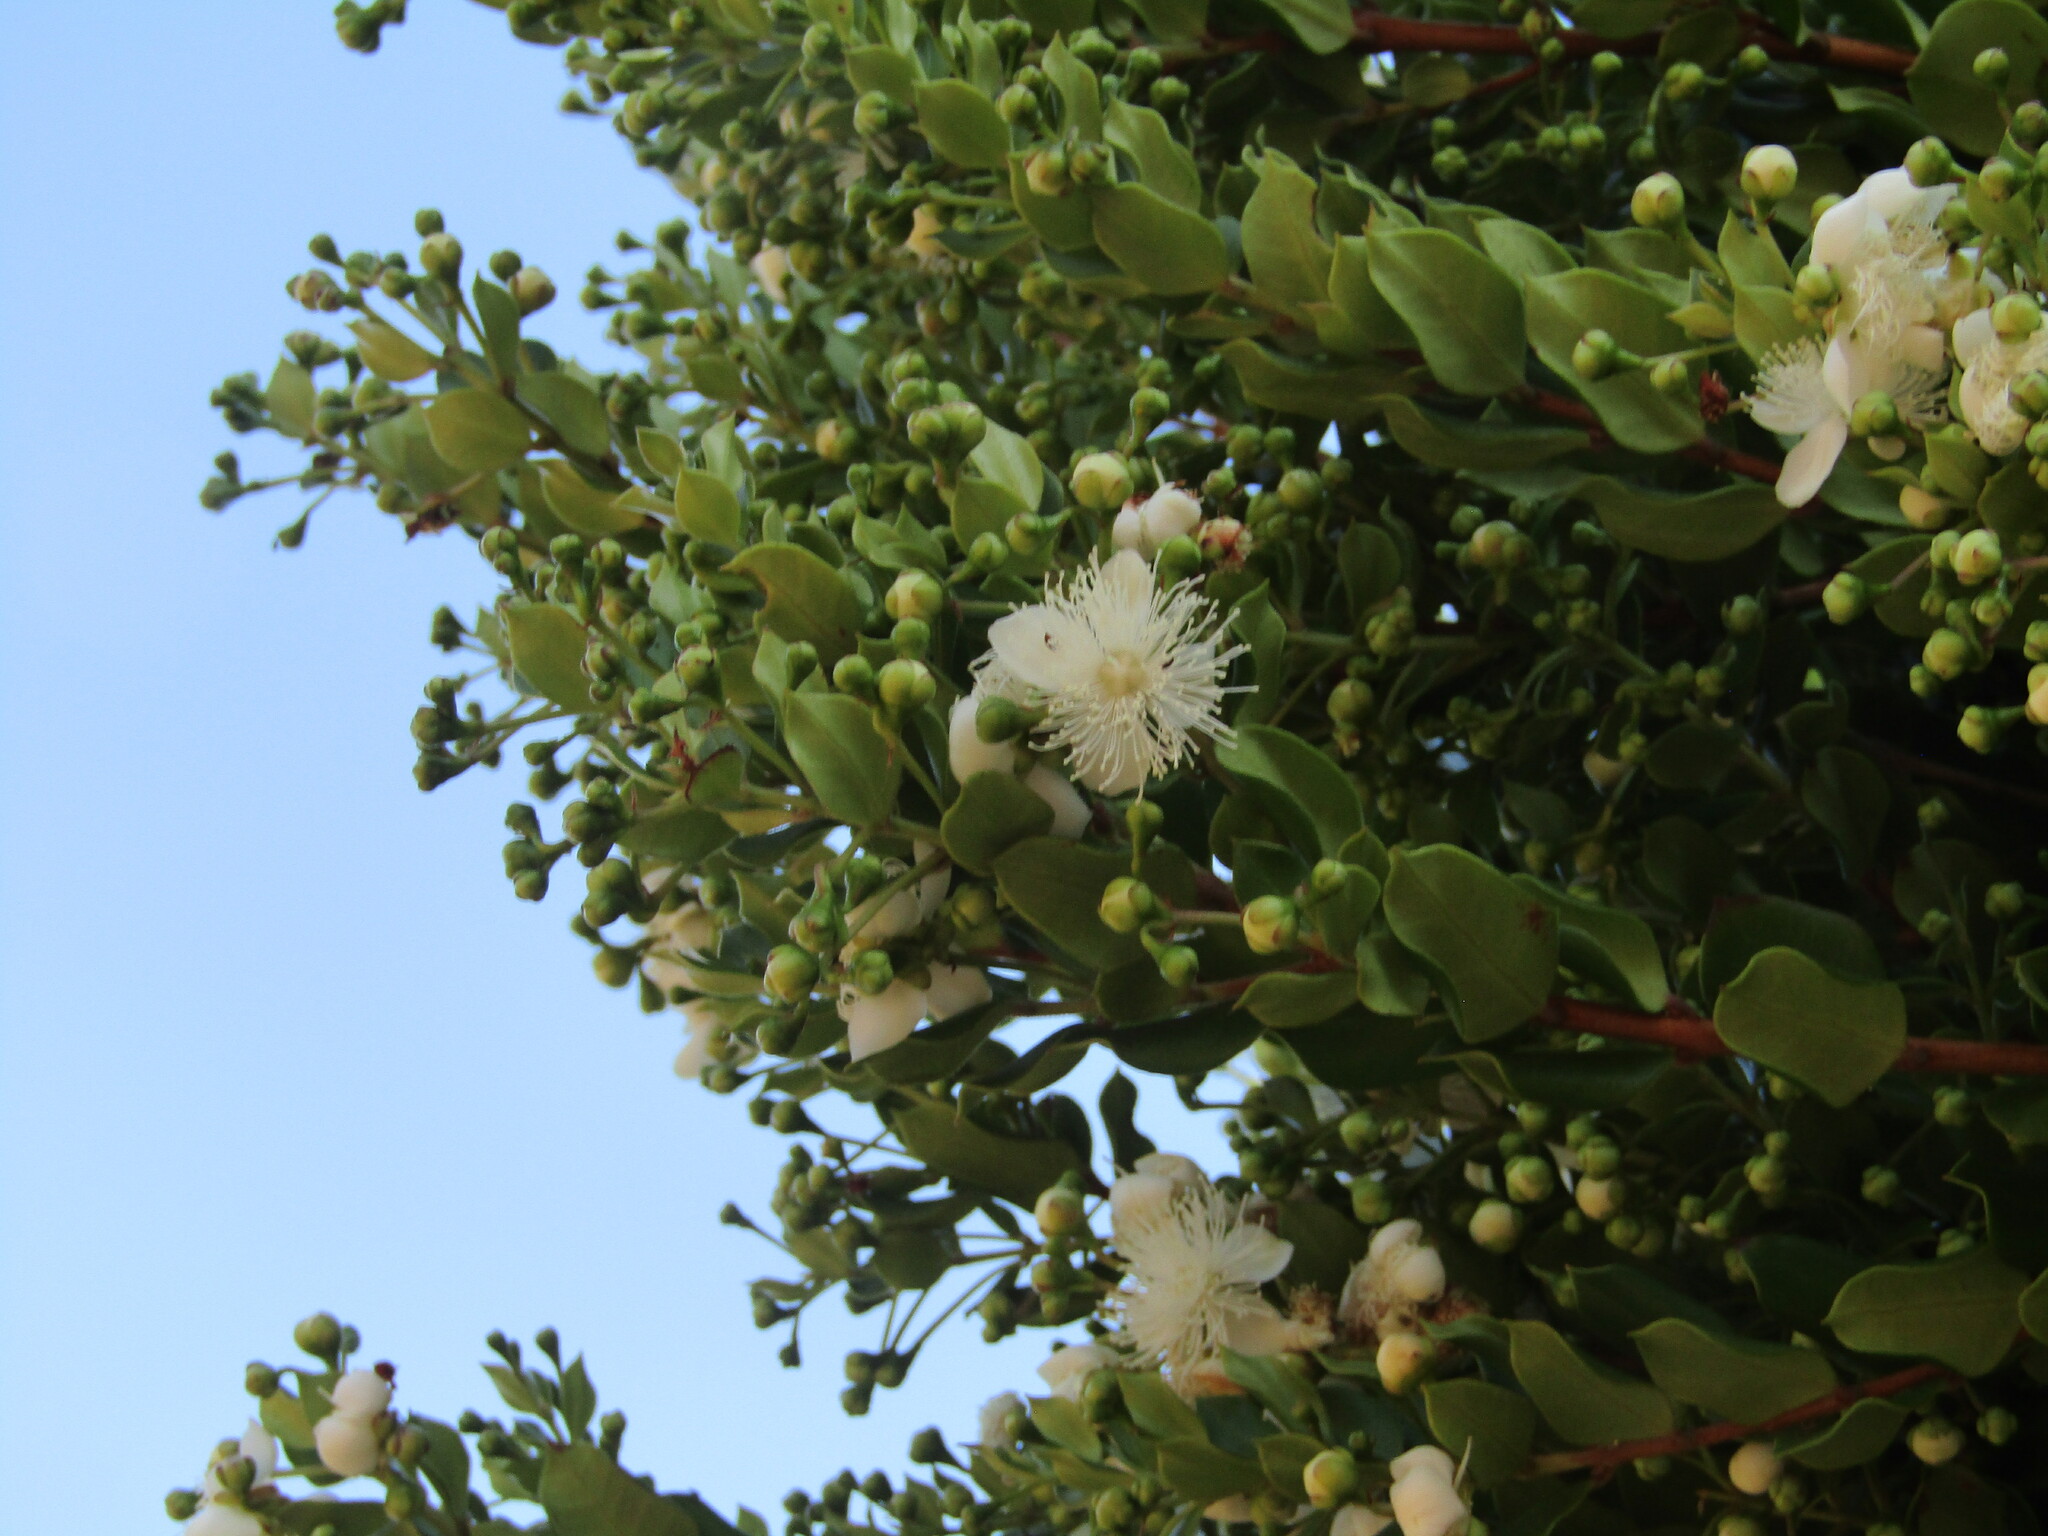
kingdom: Plantae
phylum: Tracheophyta
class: Magnoliopsida
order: Myrtales
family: Myrtaceae
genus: Luma
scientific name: Luma apiculata
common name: Chilean myrtle
